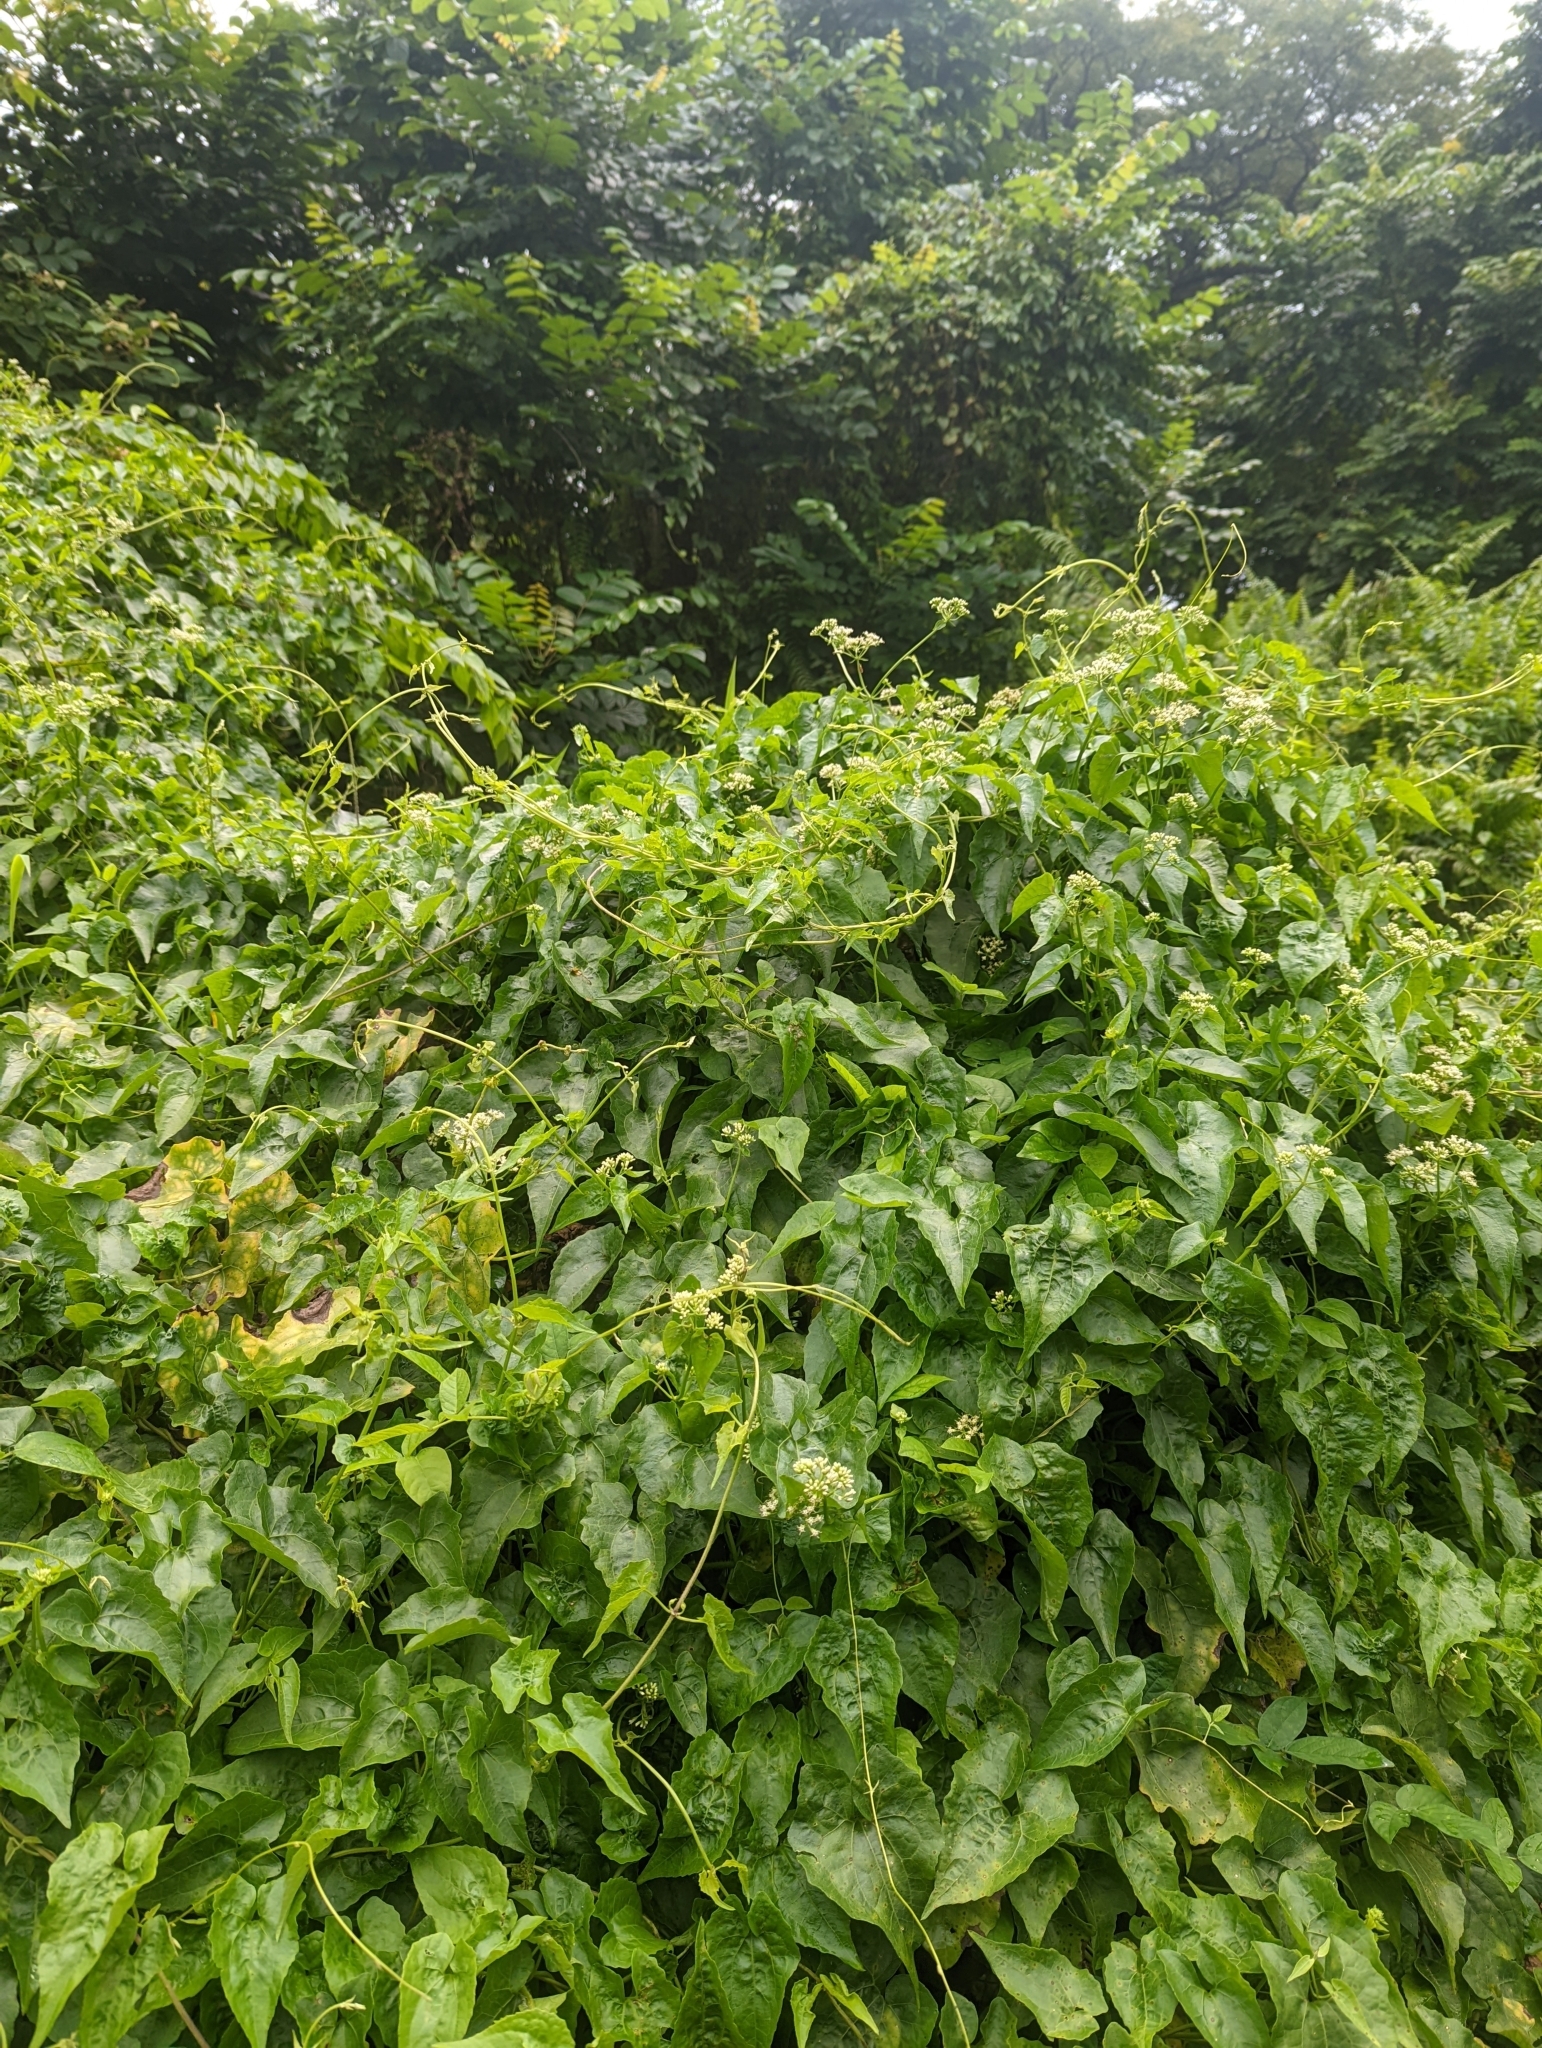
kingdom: Plantae
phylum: Tracheophyta
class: Magnoliopsida
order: Asterales
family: Asteraceae
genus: Mikania
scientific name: Mikania micrantha
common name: Mile-a-minute
